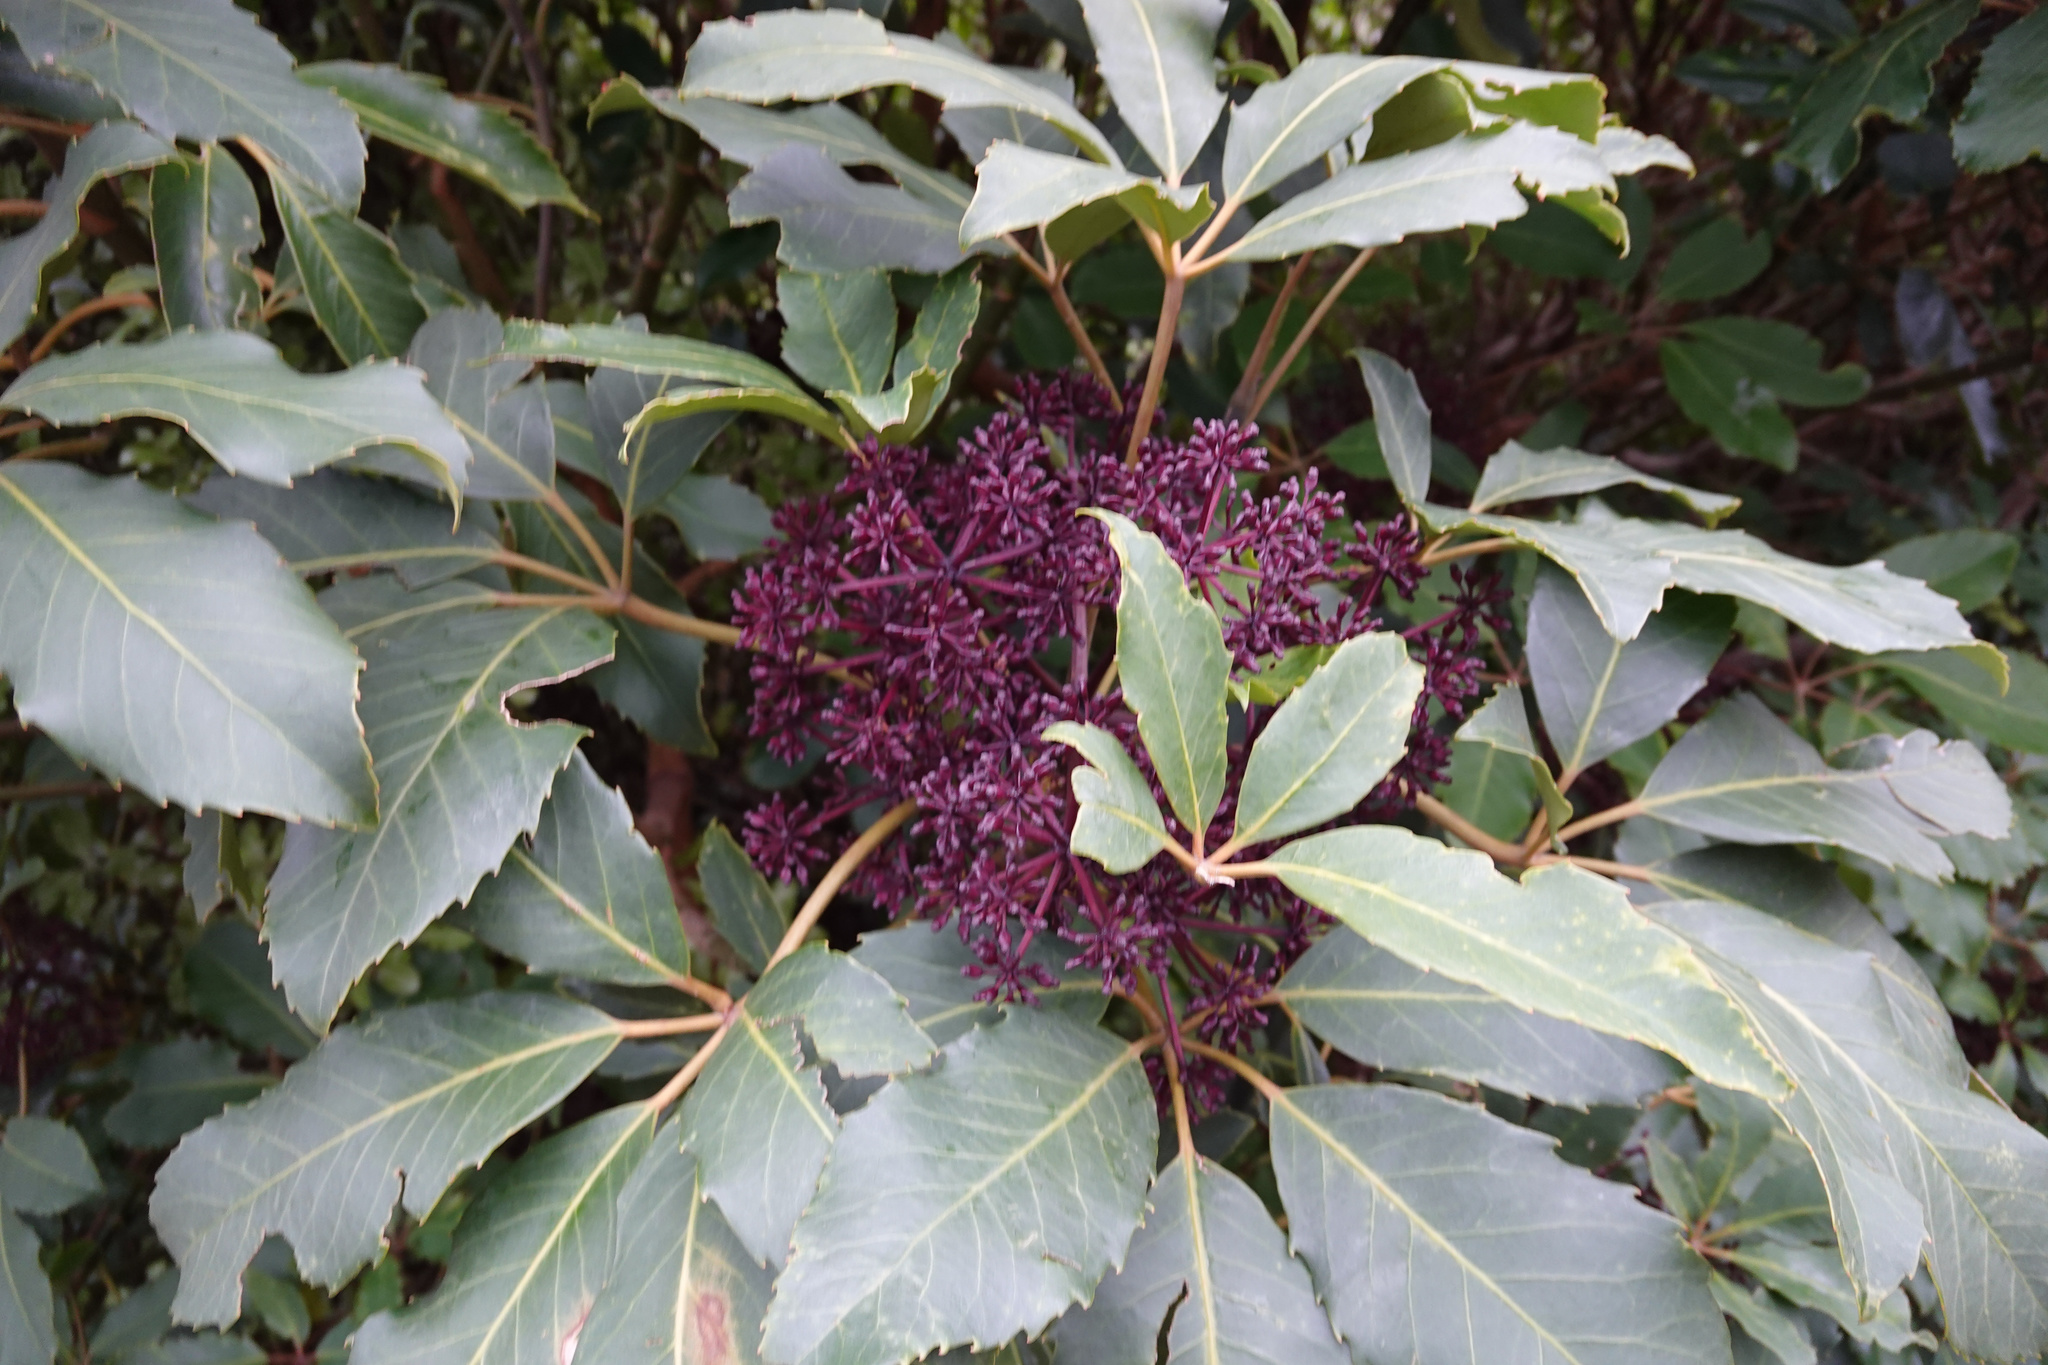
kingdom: Plantae
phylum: Tracheophyta
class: Magnoliopsida
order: Apiales
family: Araliaceae
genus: Neopanax
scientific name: Neopanax arboreus
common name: Five-fingers
